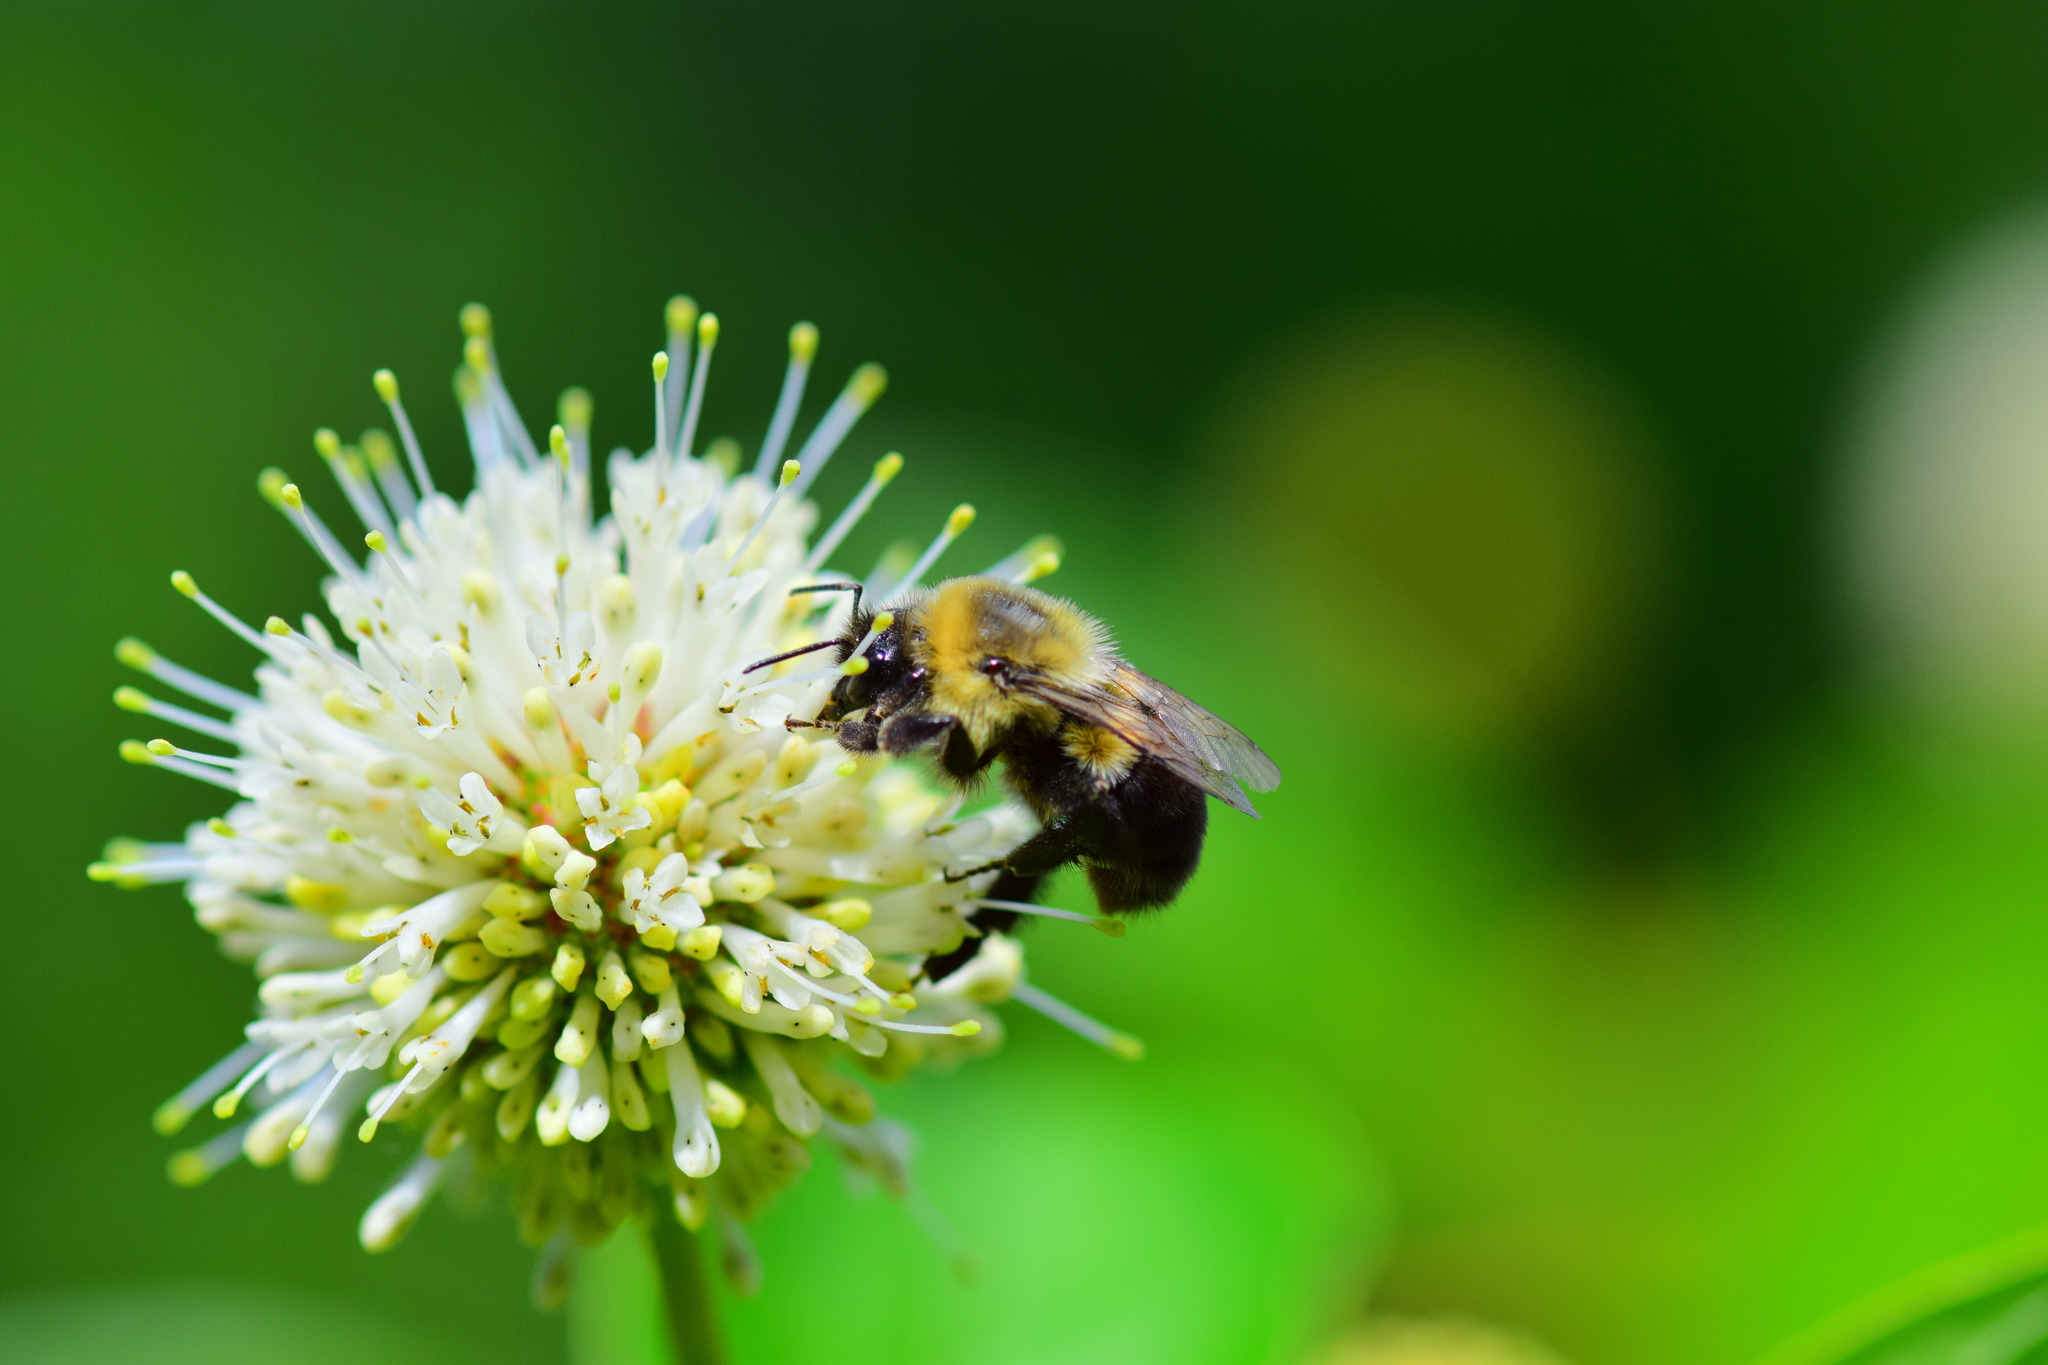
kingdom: Animalia
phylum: Arthropoda
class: Insecta
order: Hymenoptera
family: Apidae
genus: Bombus
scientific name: Bombus impatiens
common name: Common eastern bumble bee
